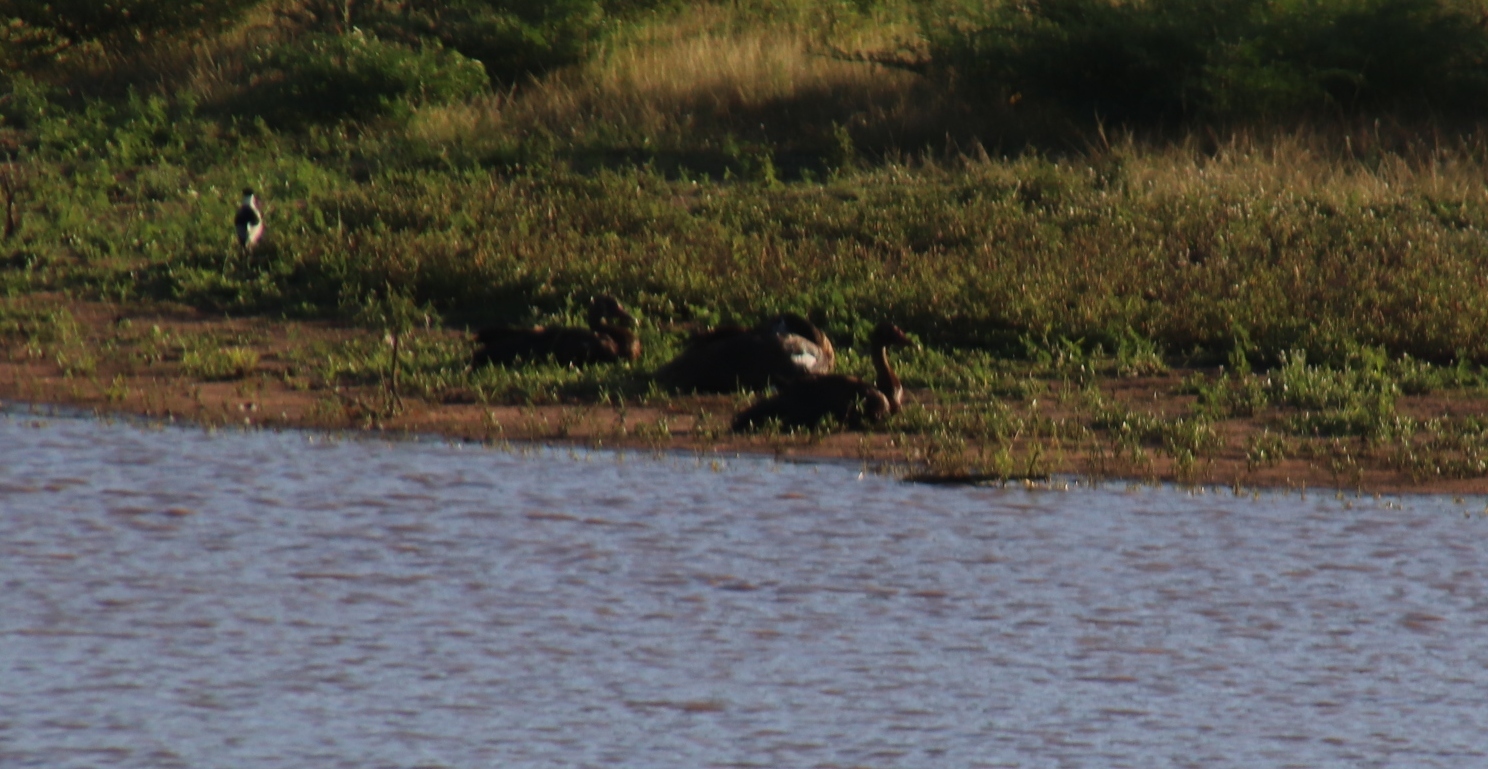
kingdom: Animalia
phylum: Chordata
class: Aves
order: Anseriformes
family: Anatidae
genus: Plectropterus
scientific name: Plectropterus gambensis
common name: Spur-winged goose
